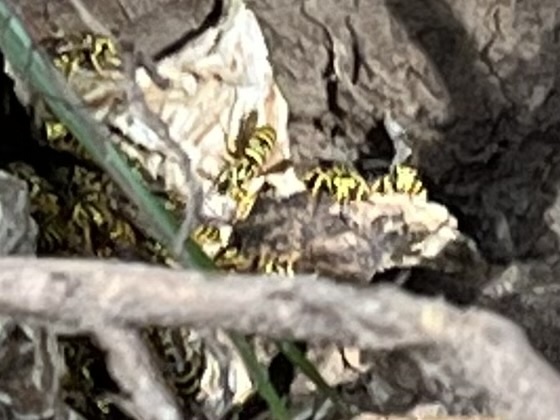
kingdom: Animalia
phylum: Arthropoda
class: Insecta
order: Hymenoptera
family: Vespidae
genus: Vespula
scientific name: Vespula squamosa
